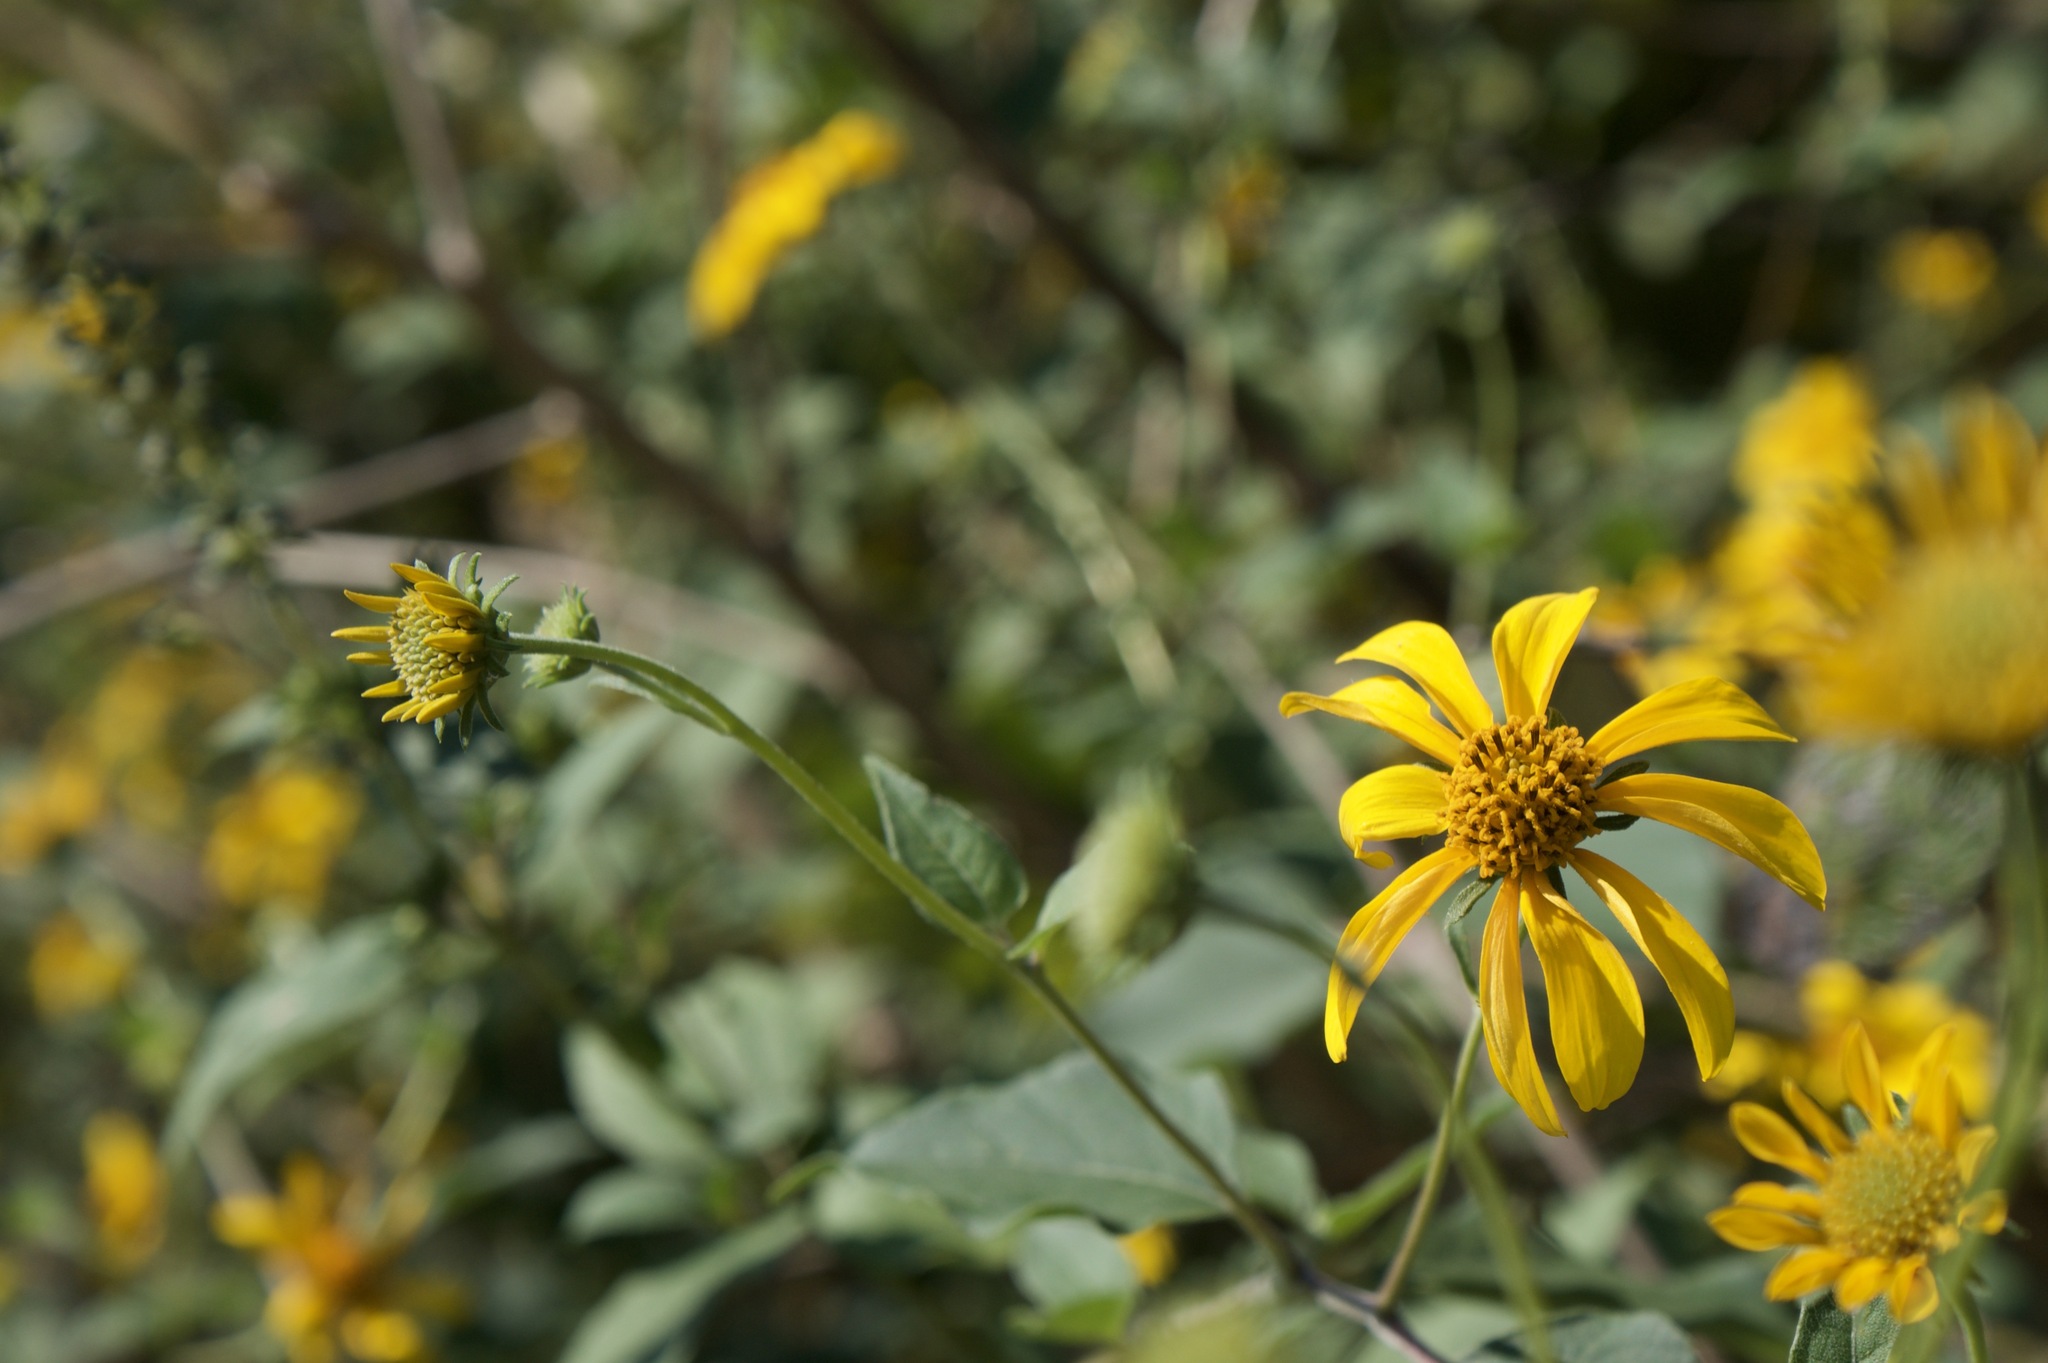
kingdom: Plantae
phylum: Tracheophyta
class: Magnoliopsida
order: Asterales
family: Asteraceae
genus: Viguiera
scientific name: Viguiera dentata
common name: Toothleaf
